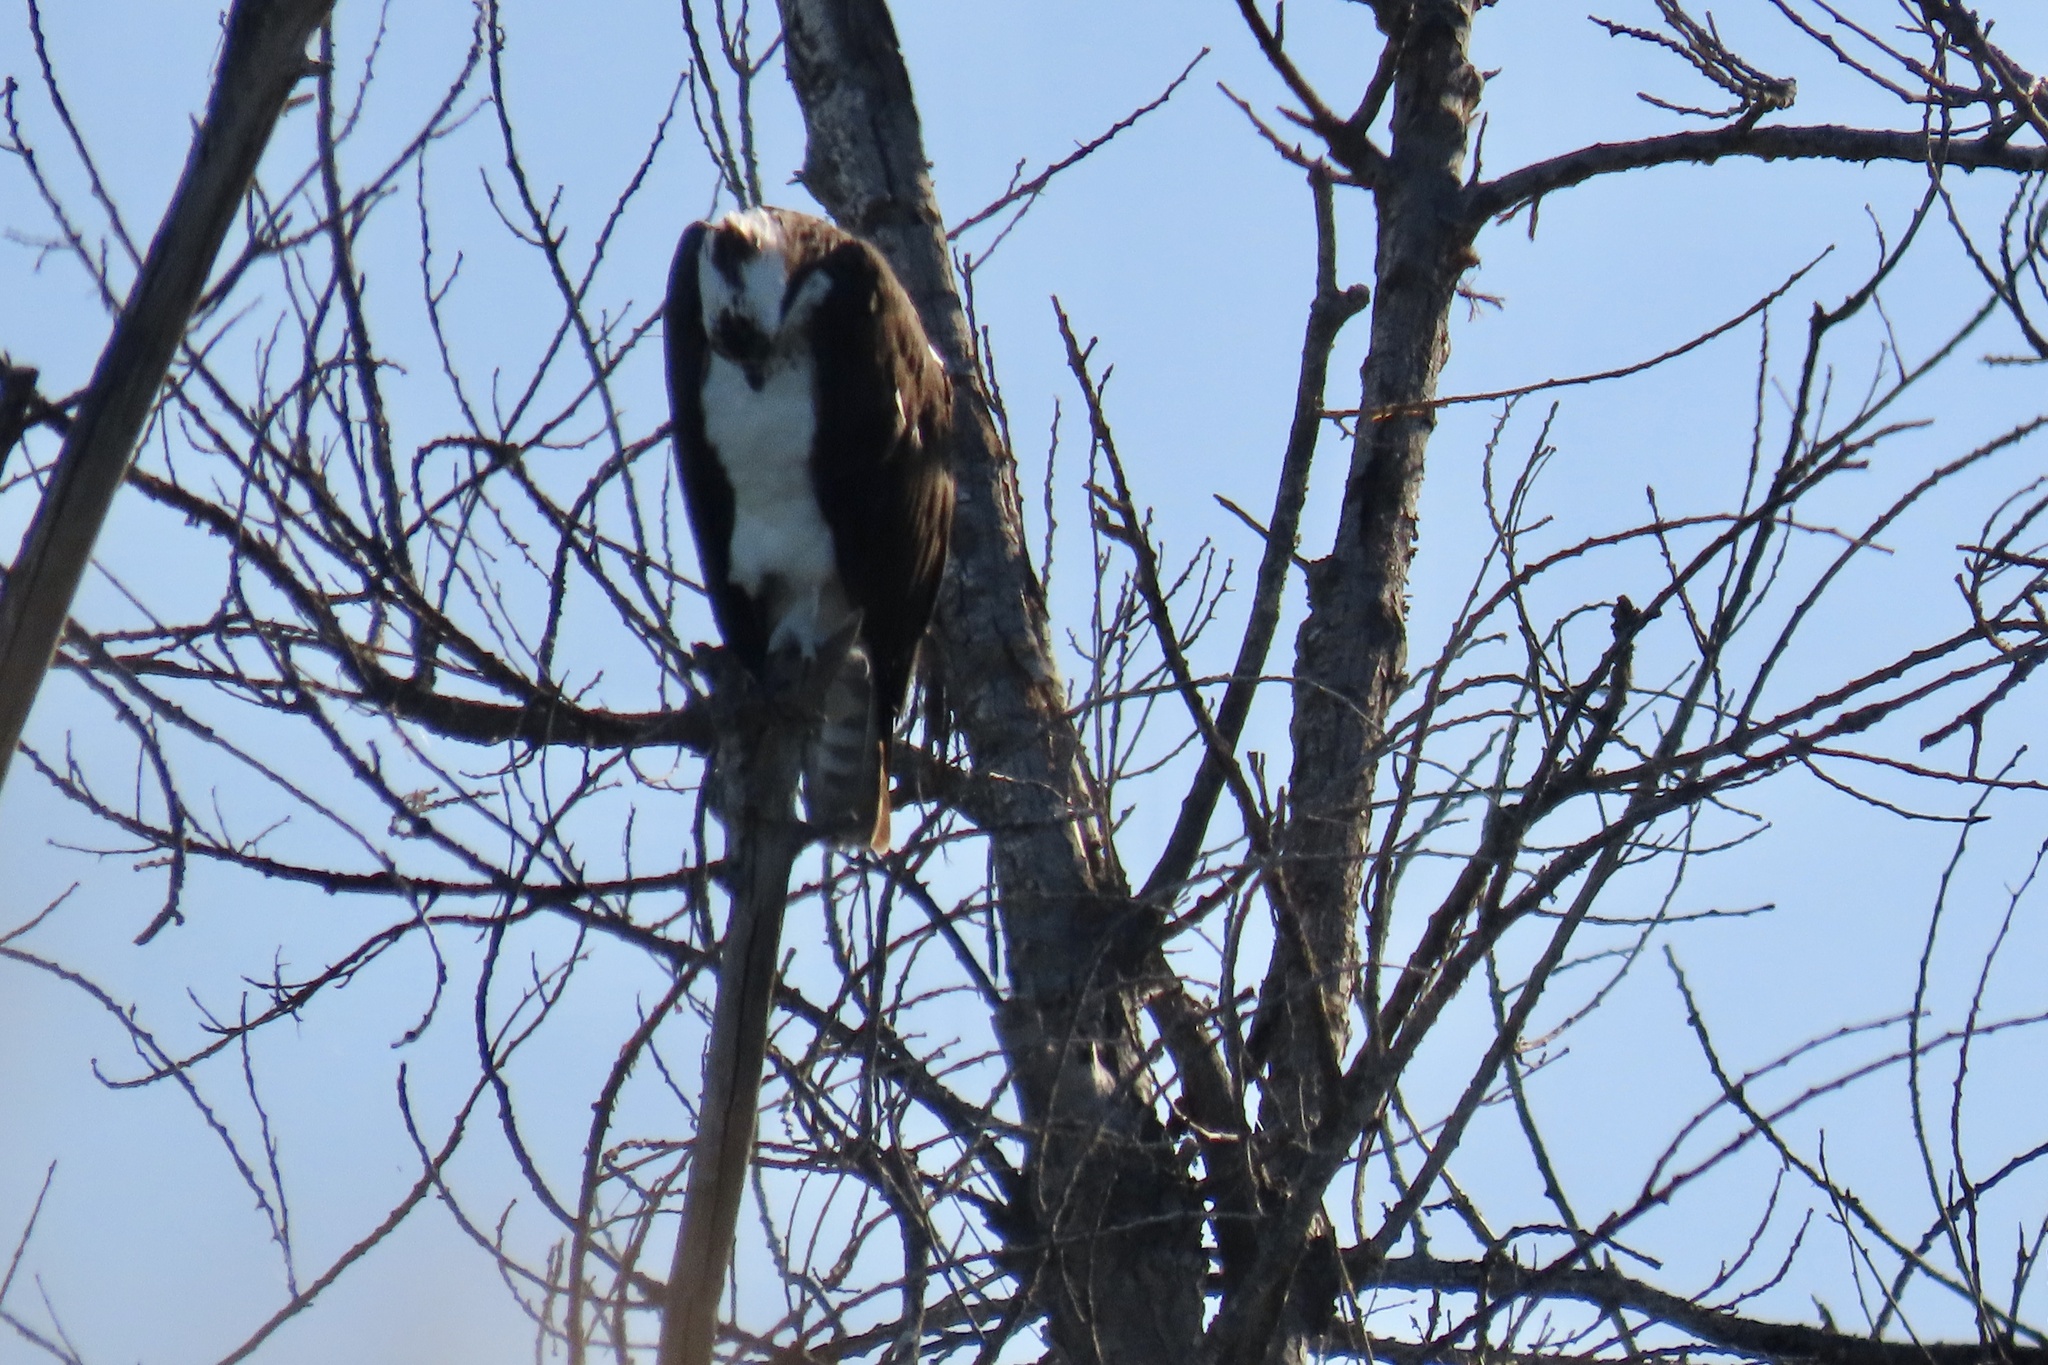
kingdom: Animalia
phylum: Chordata
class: Aves
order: Accipitriformes
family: Pandionidae
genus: Pandion
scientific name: Pandion haliaetus
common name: Osprey
